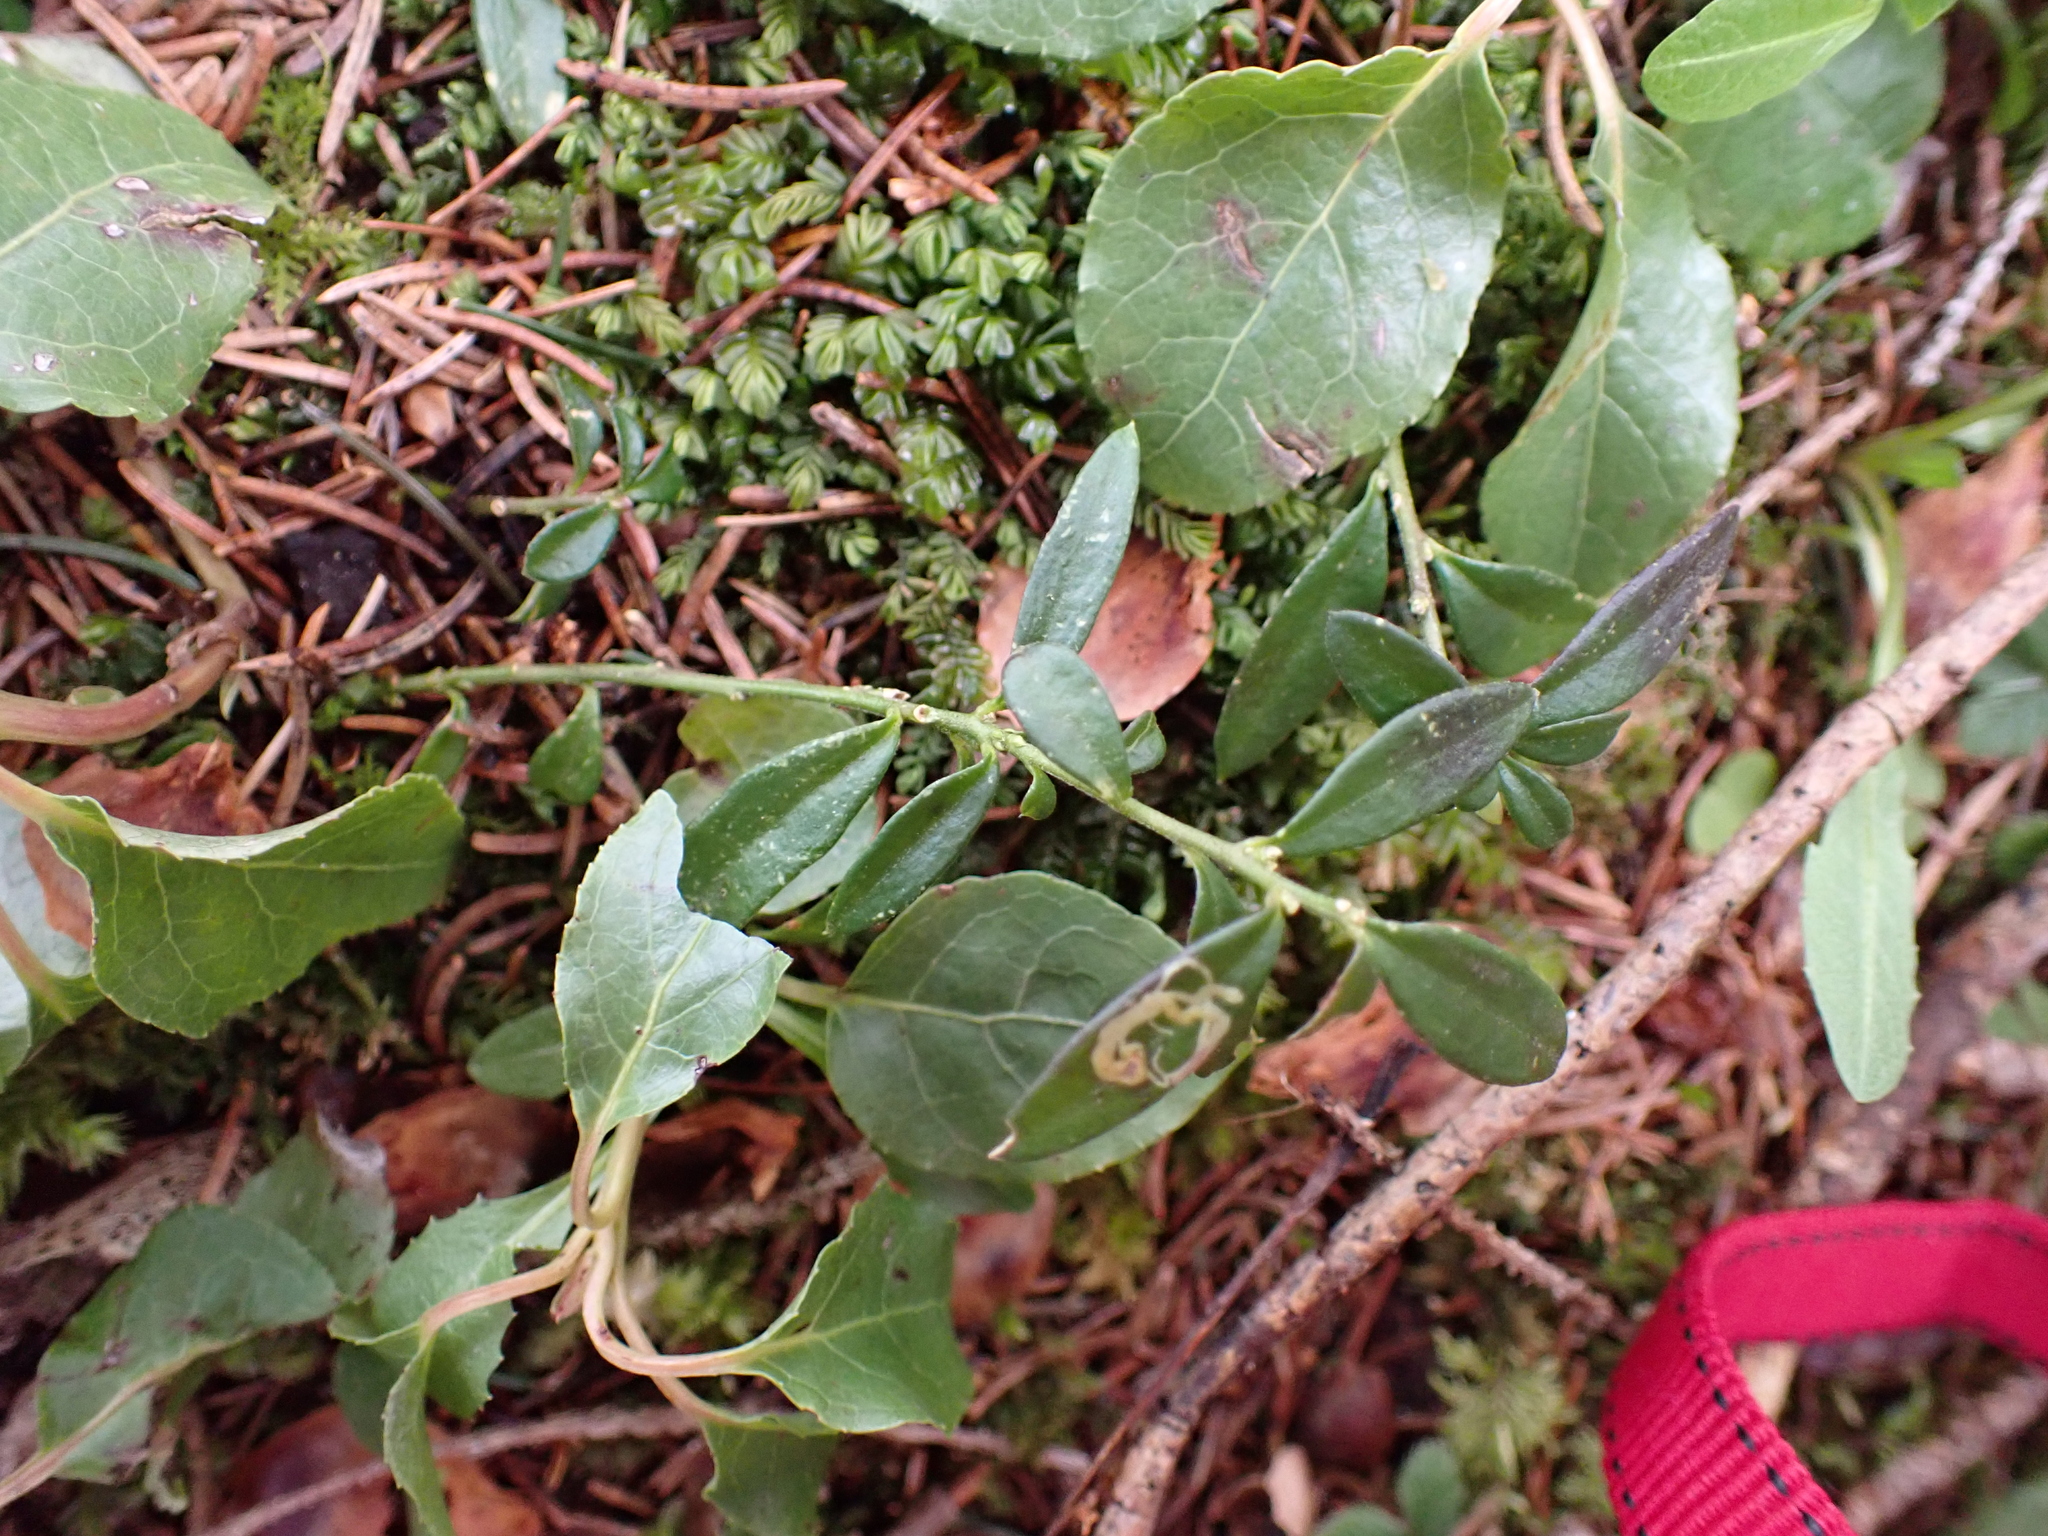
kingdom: Plantae
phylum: Tracheophyta
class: Magnoliopsida
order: Fabales
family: Polygalaceae
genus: Polygaloides
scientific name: Polygaloides chamaebuxus
